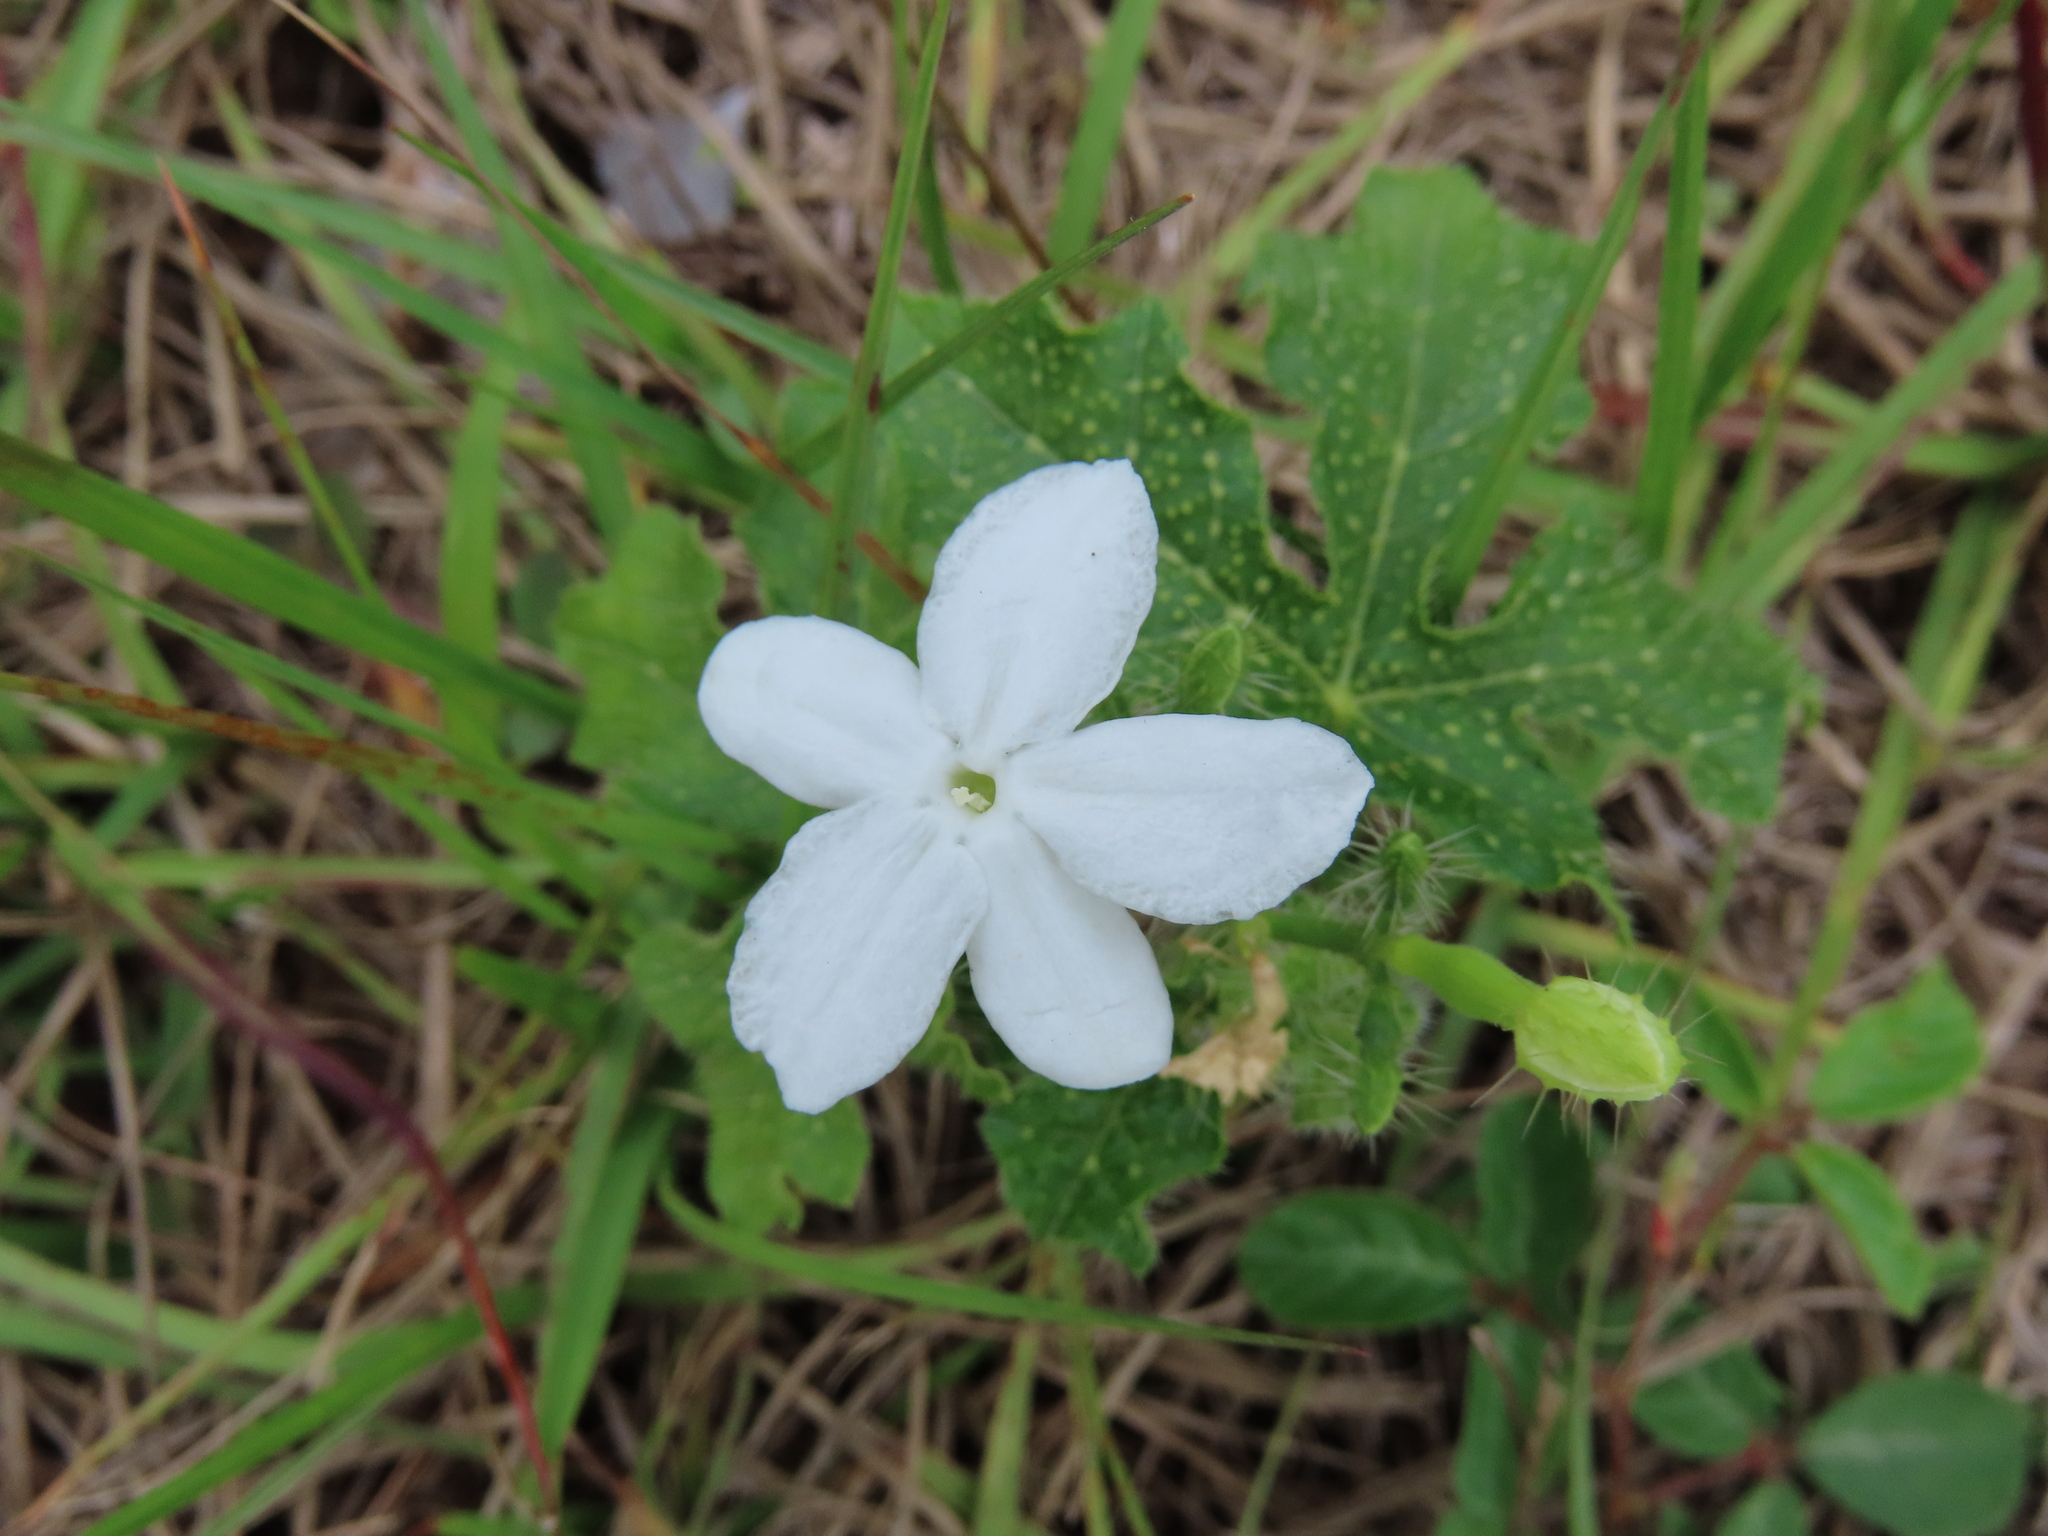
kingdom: Plantae
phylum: Tracheophyta
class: Magnoliopsida
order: Malpighiales
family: Euphorbiaceae
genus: Cnidoscolus
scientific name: Cnidoscolus stimulosus
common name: Bull-nettle
